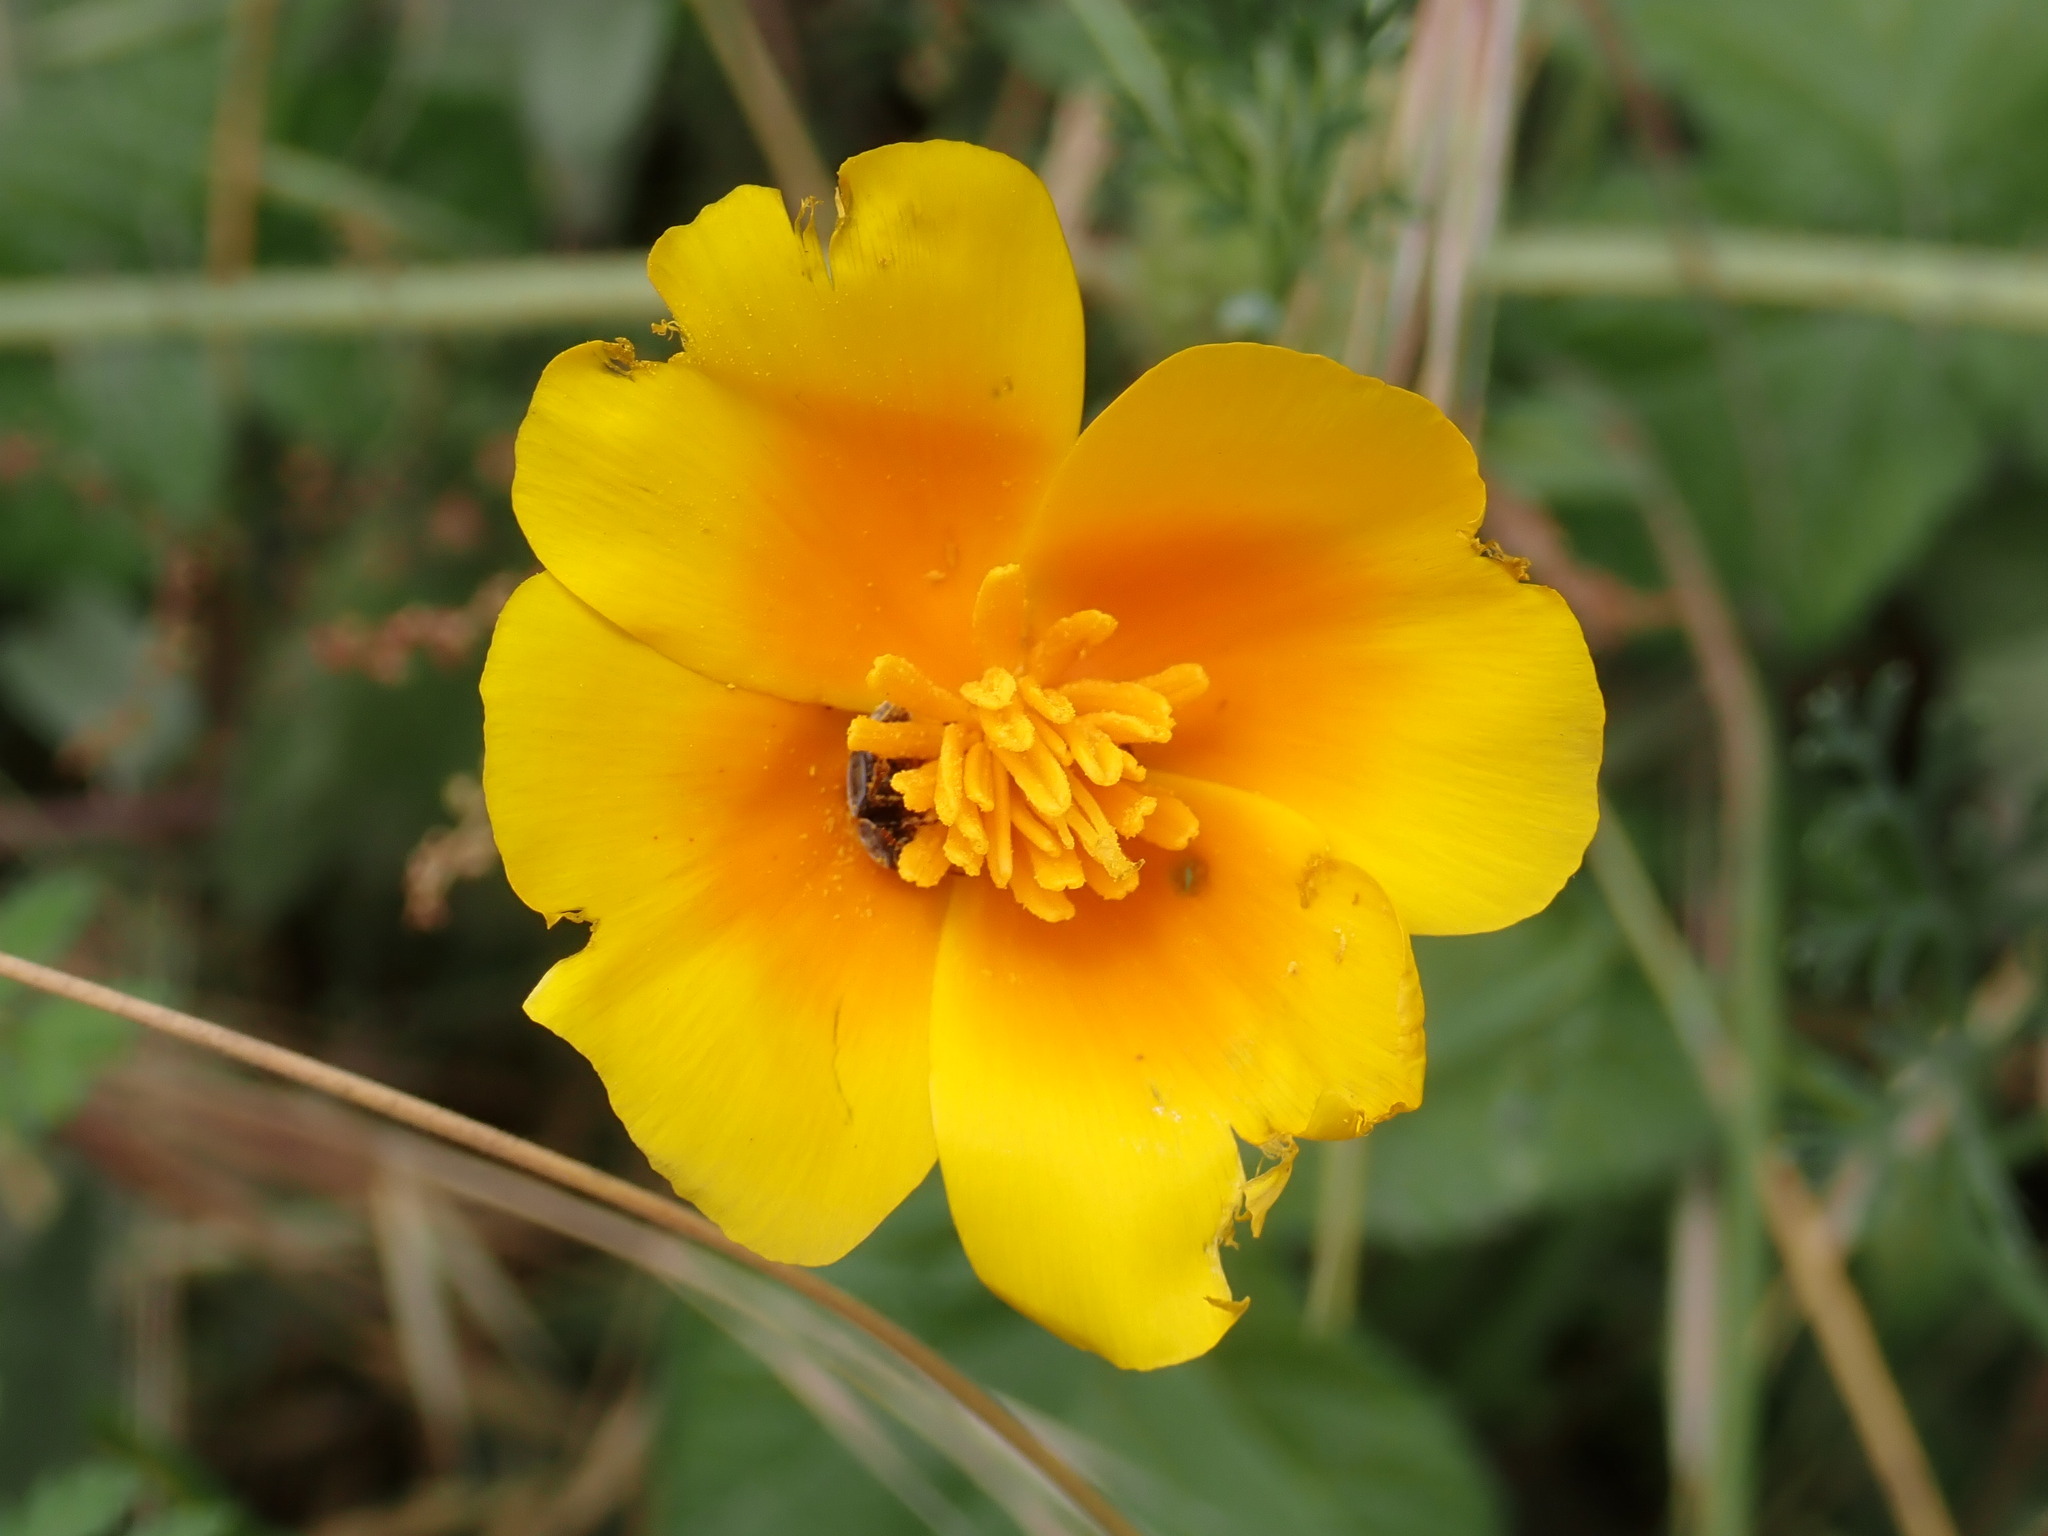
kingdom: Plantae
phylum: Tracheophyta
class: Magnoliopsida
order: Ranunculales
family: Papaveraceae
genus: Eschscholzia
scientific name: Eschscholzia californica
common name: California poppy
